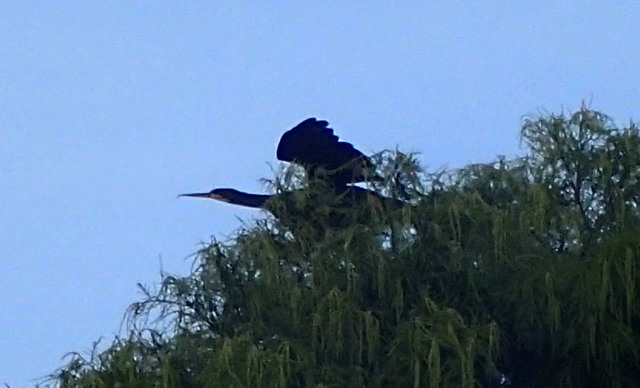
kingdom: Animalia
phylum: Chordata
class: Aves
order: Suliformes
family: Anhingidae
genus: Anhinga
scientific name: Anhinga anhinga
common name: Anhinga
